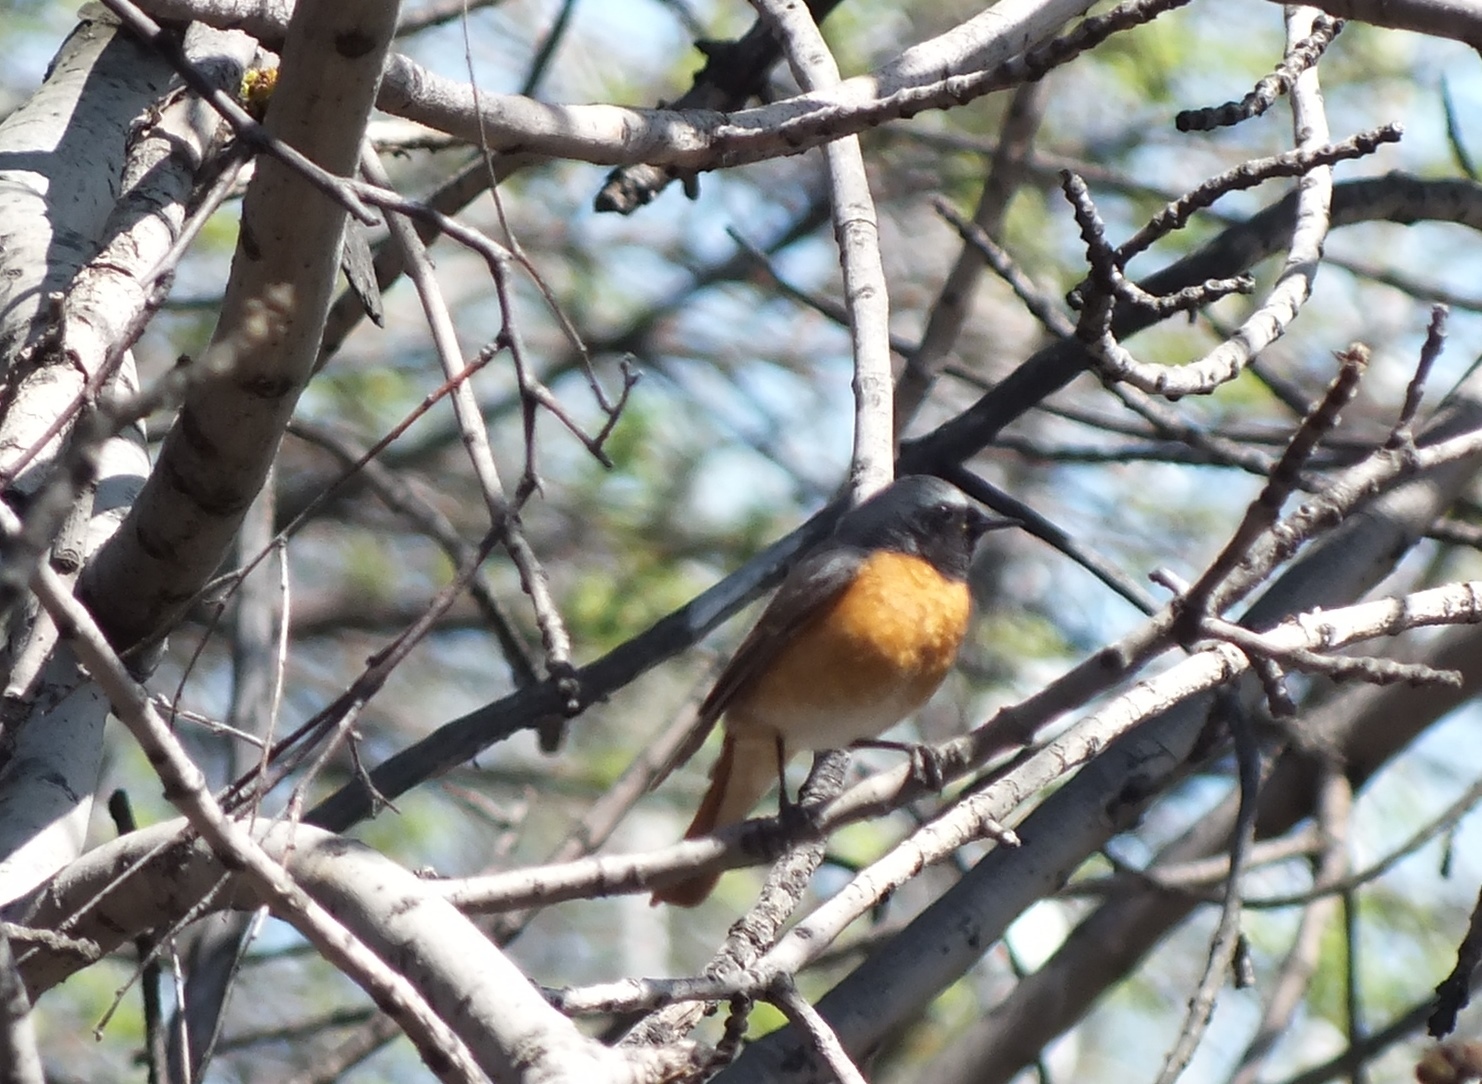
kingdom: Animalia
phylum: Chordata
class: Aves
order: Passeriformes
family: Muscicapidae
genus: Phoenicurus
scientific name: Phoenicurus phoenicurus
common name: Common redstart
